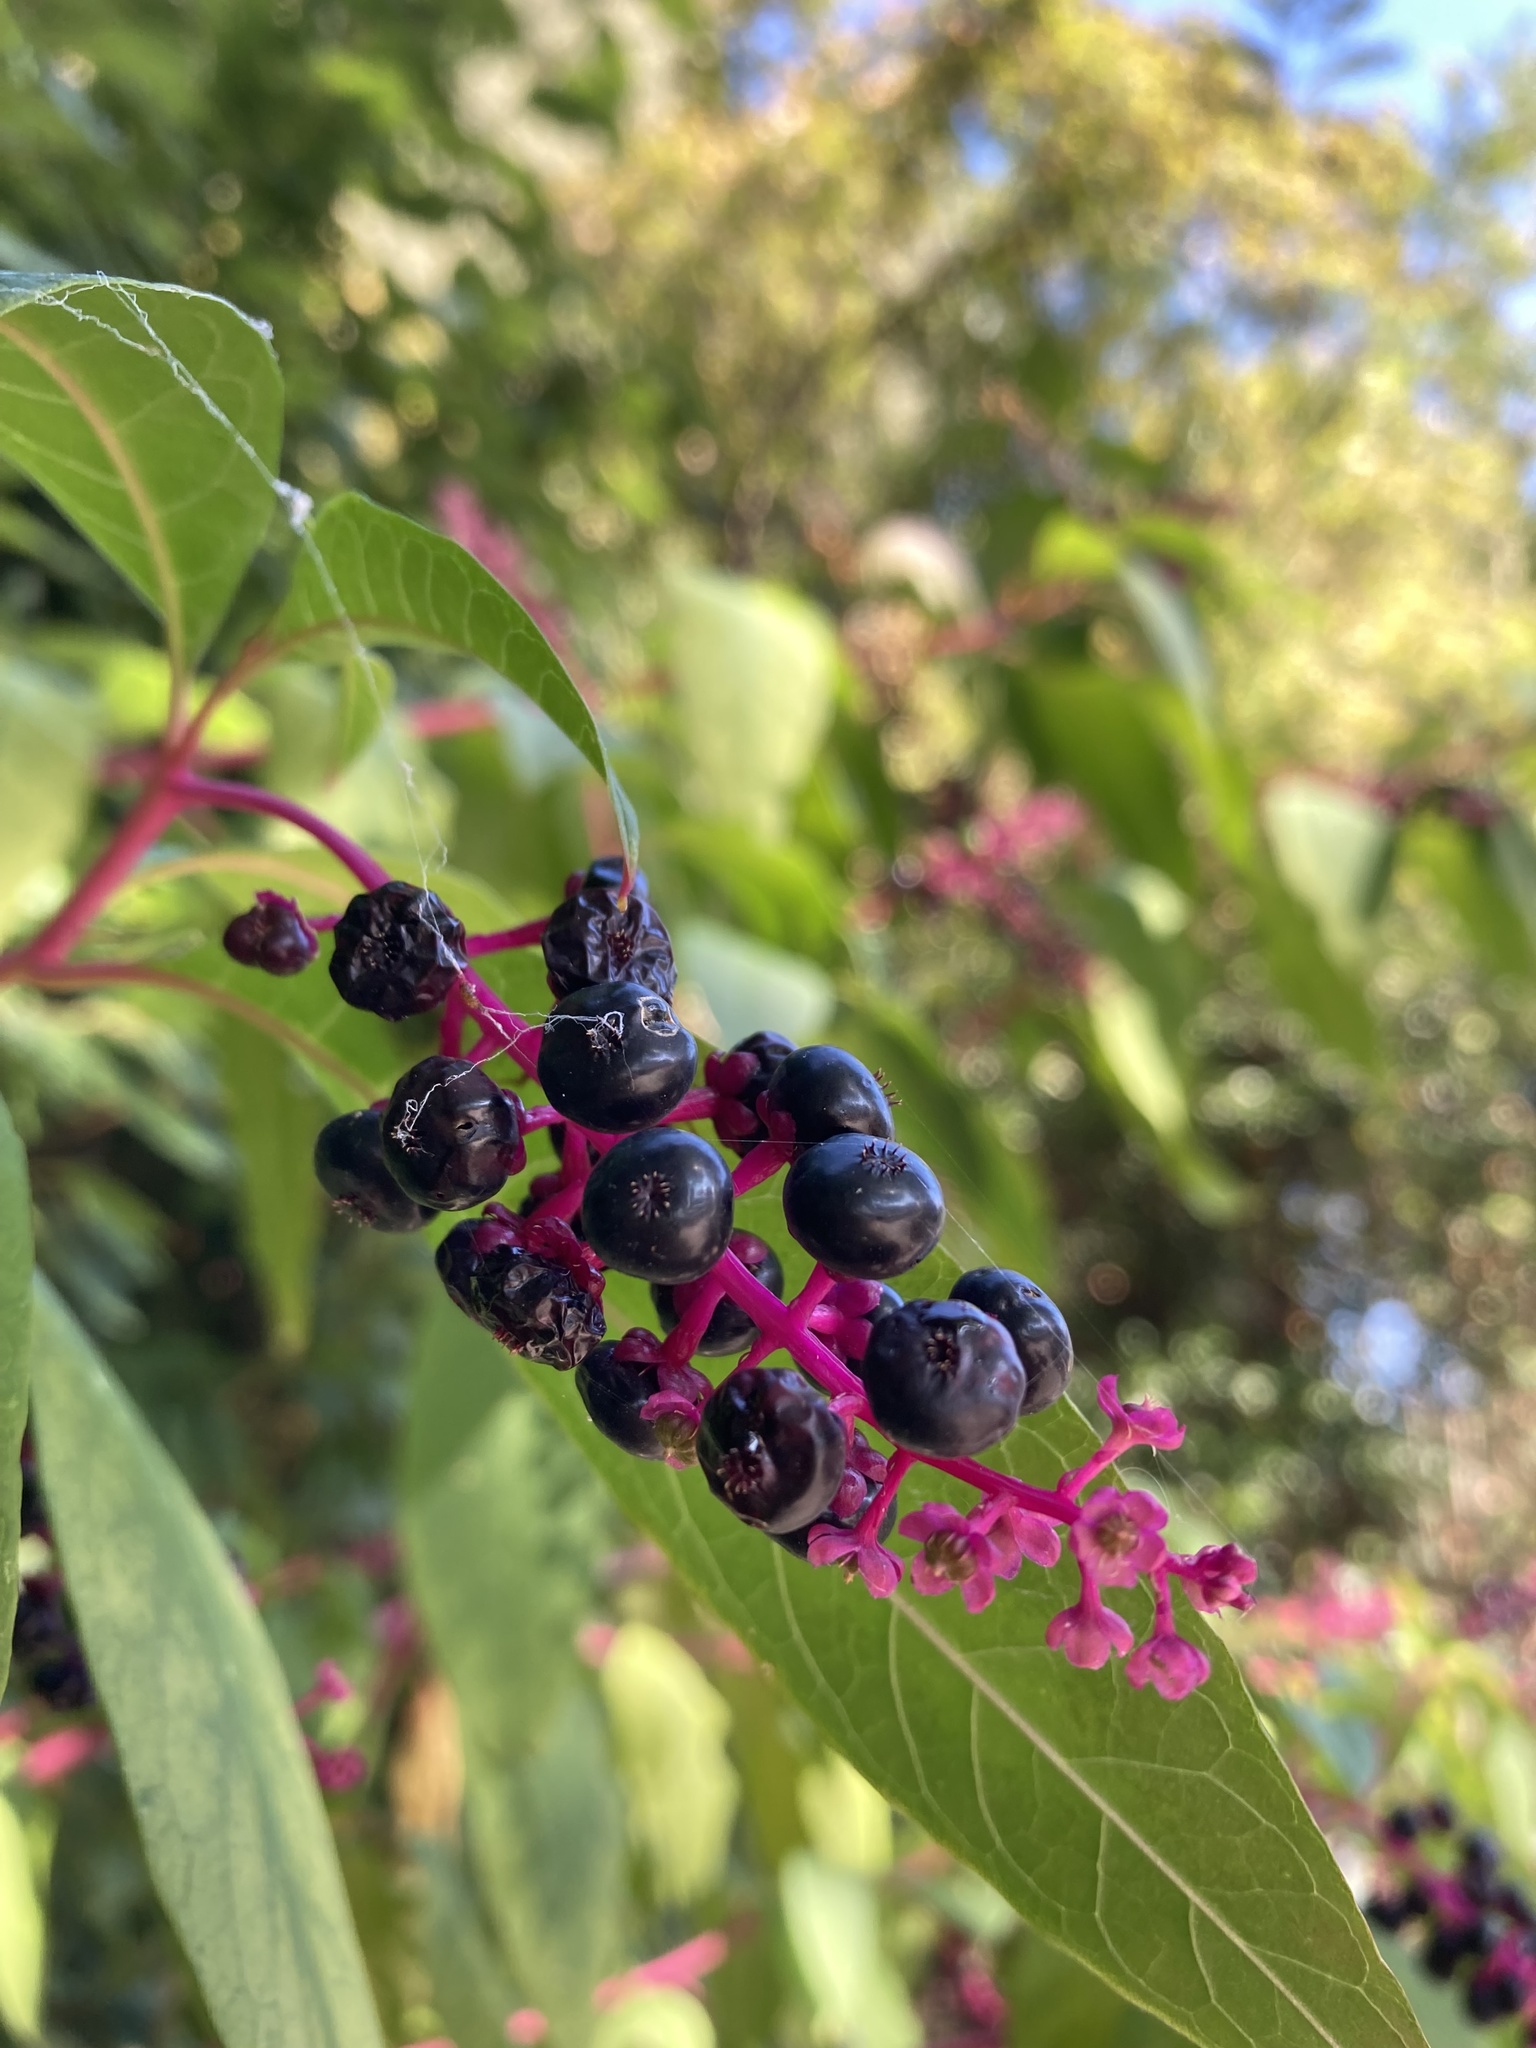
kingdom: Plantae
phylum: Tracheophyta
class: Magnoliopsida
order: Caryophyllales
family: Phytolaccaceae
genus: Phytolacca
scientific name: Phytolacca americana
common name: American pokeweed
